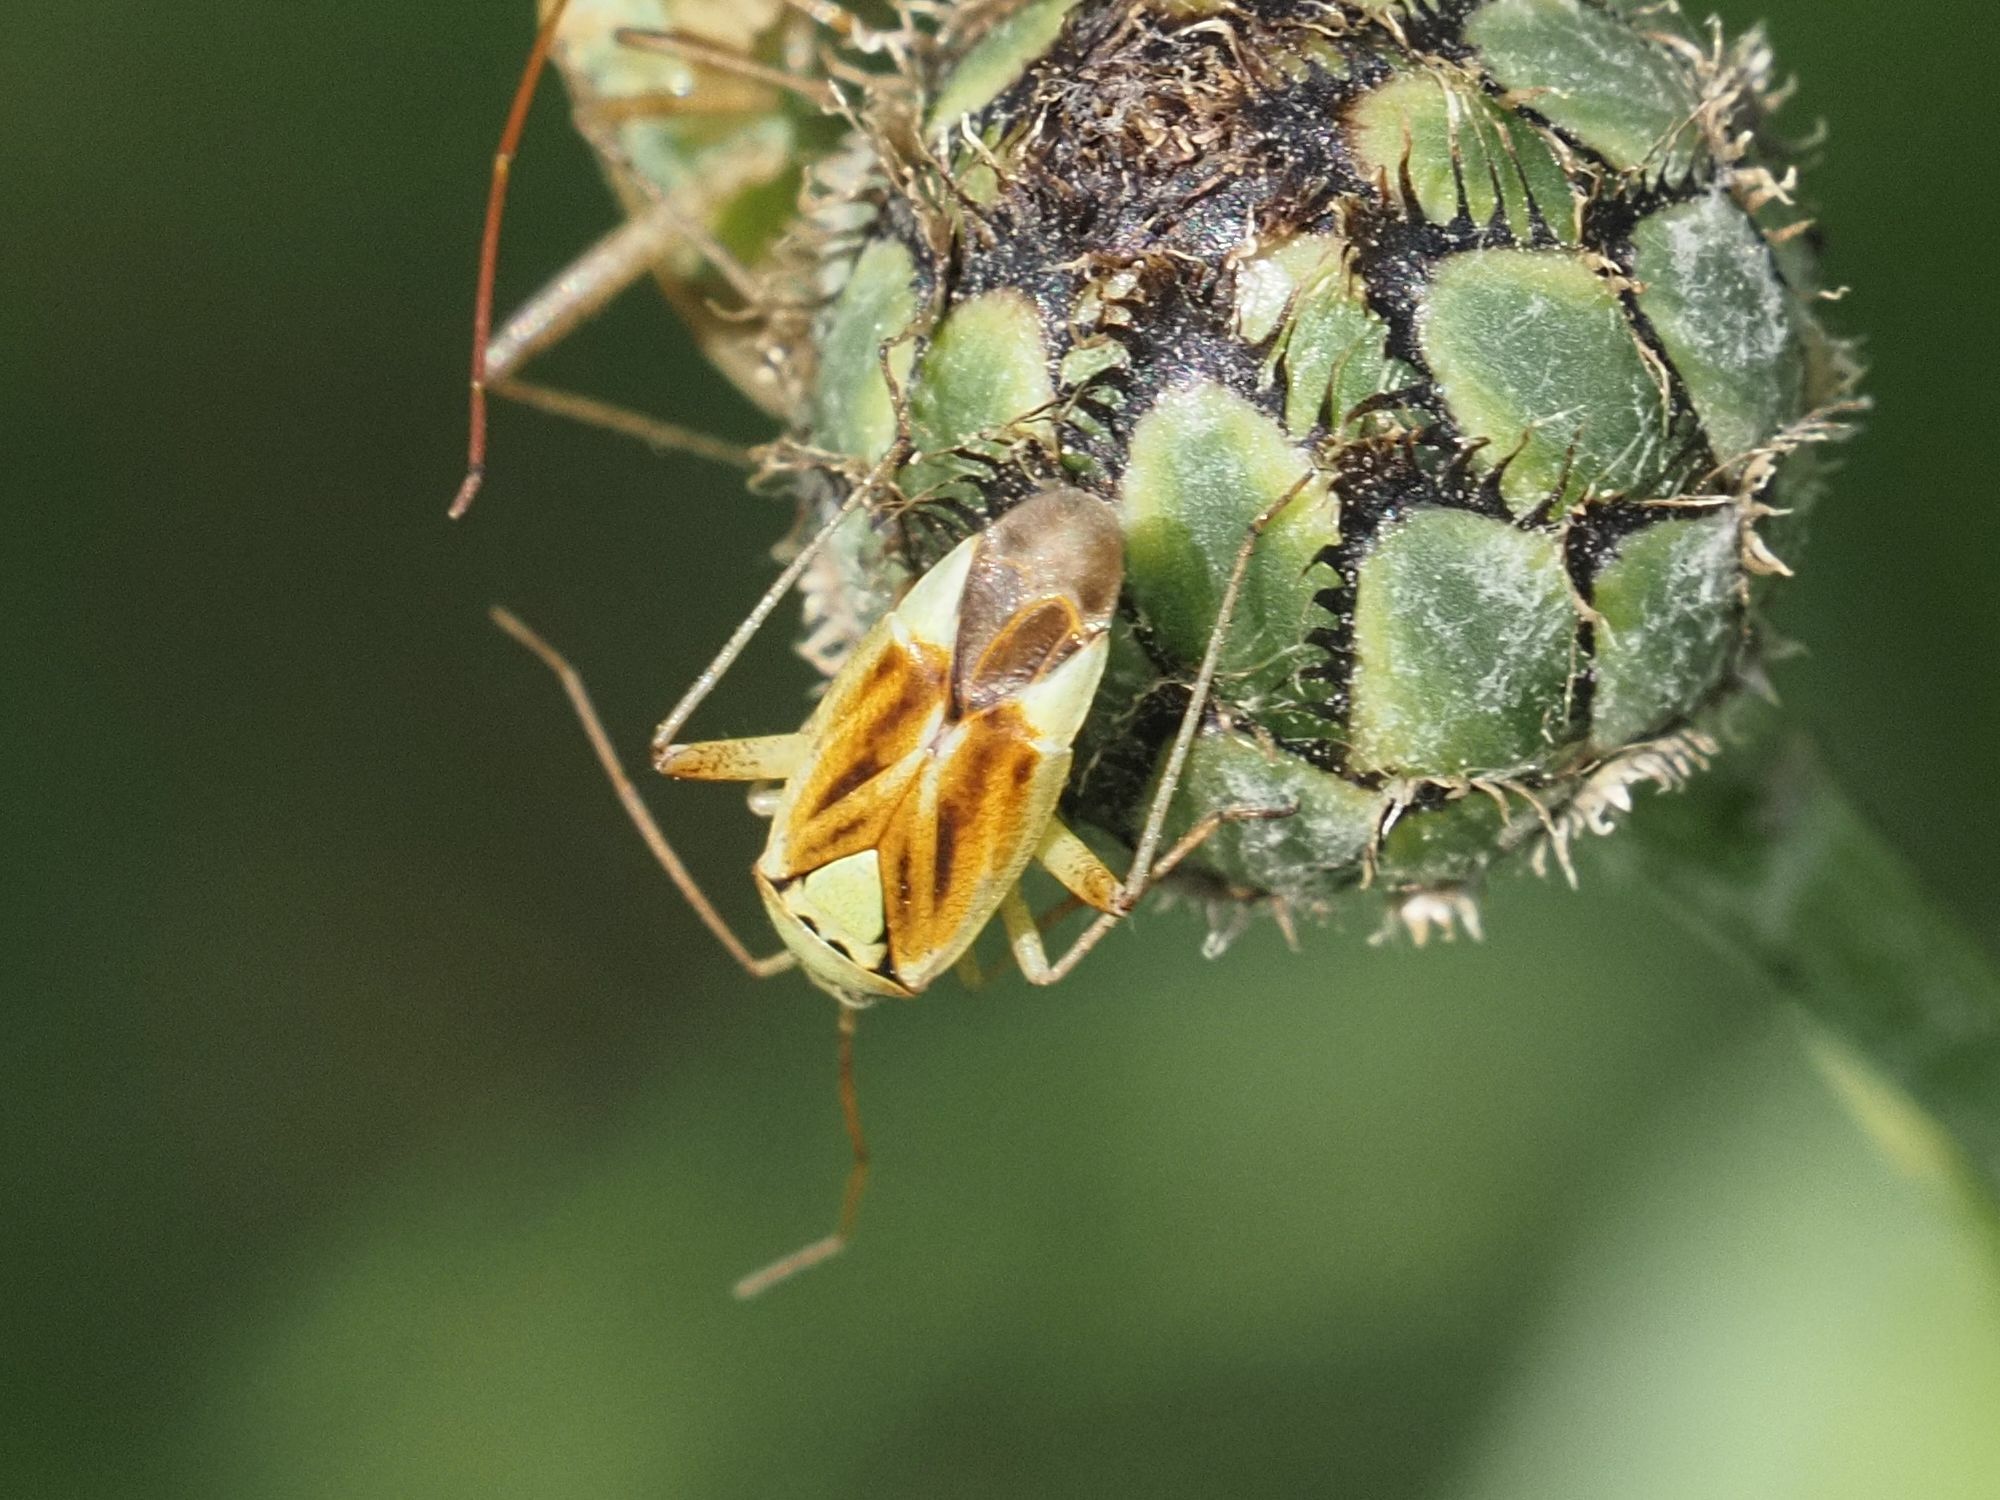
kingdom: Animalia
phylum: Arthropoda
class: Insecta
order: Hemiptera
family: Miridae
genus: Closterotomus
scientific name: Closterotomus norvegicus
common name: Plant bug
